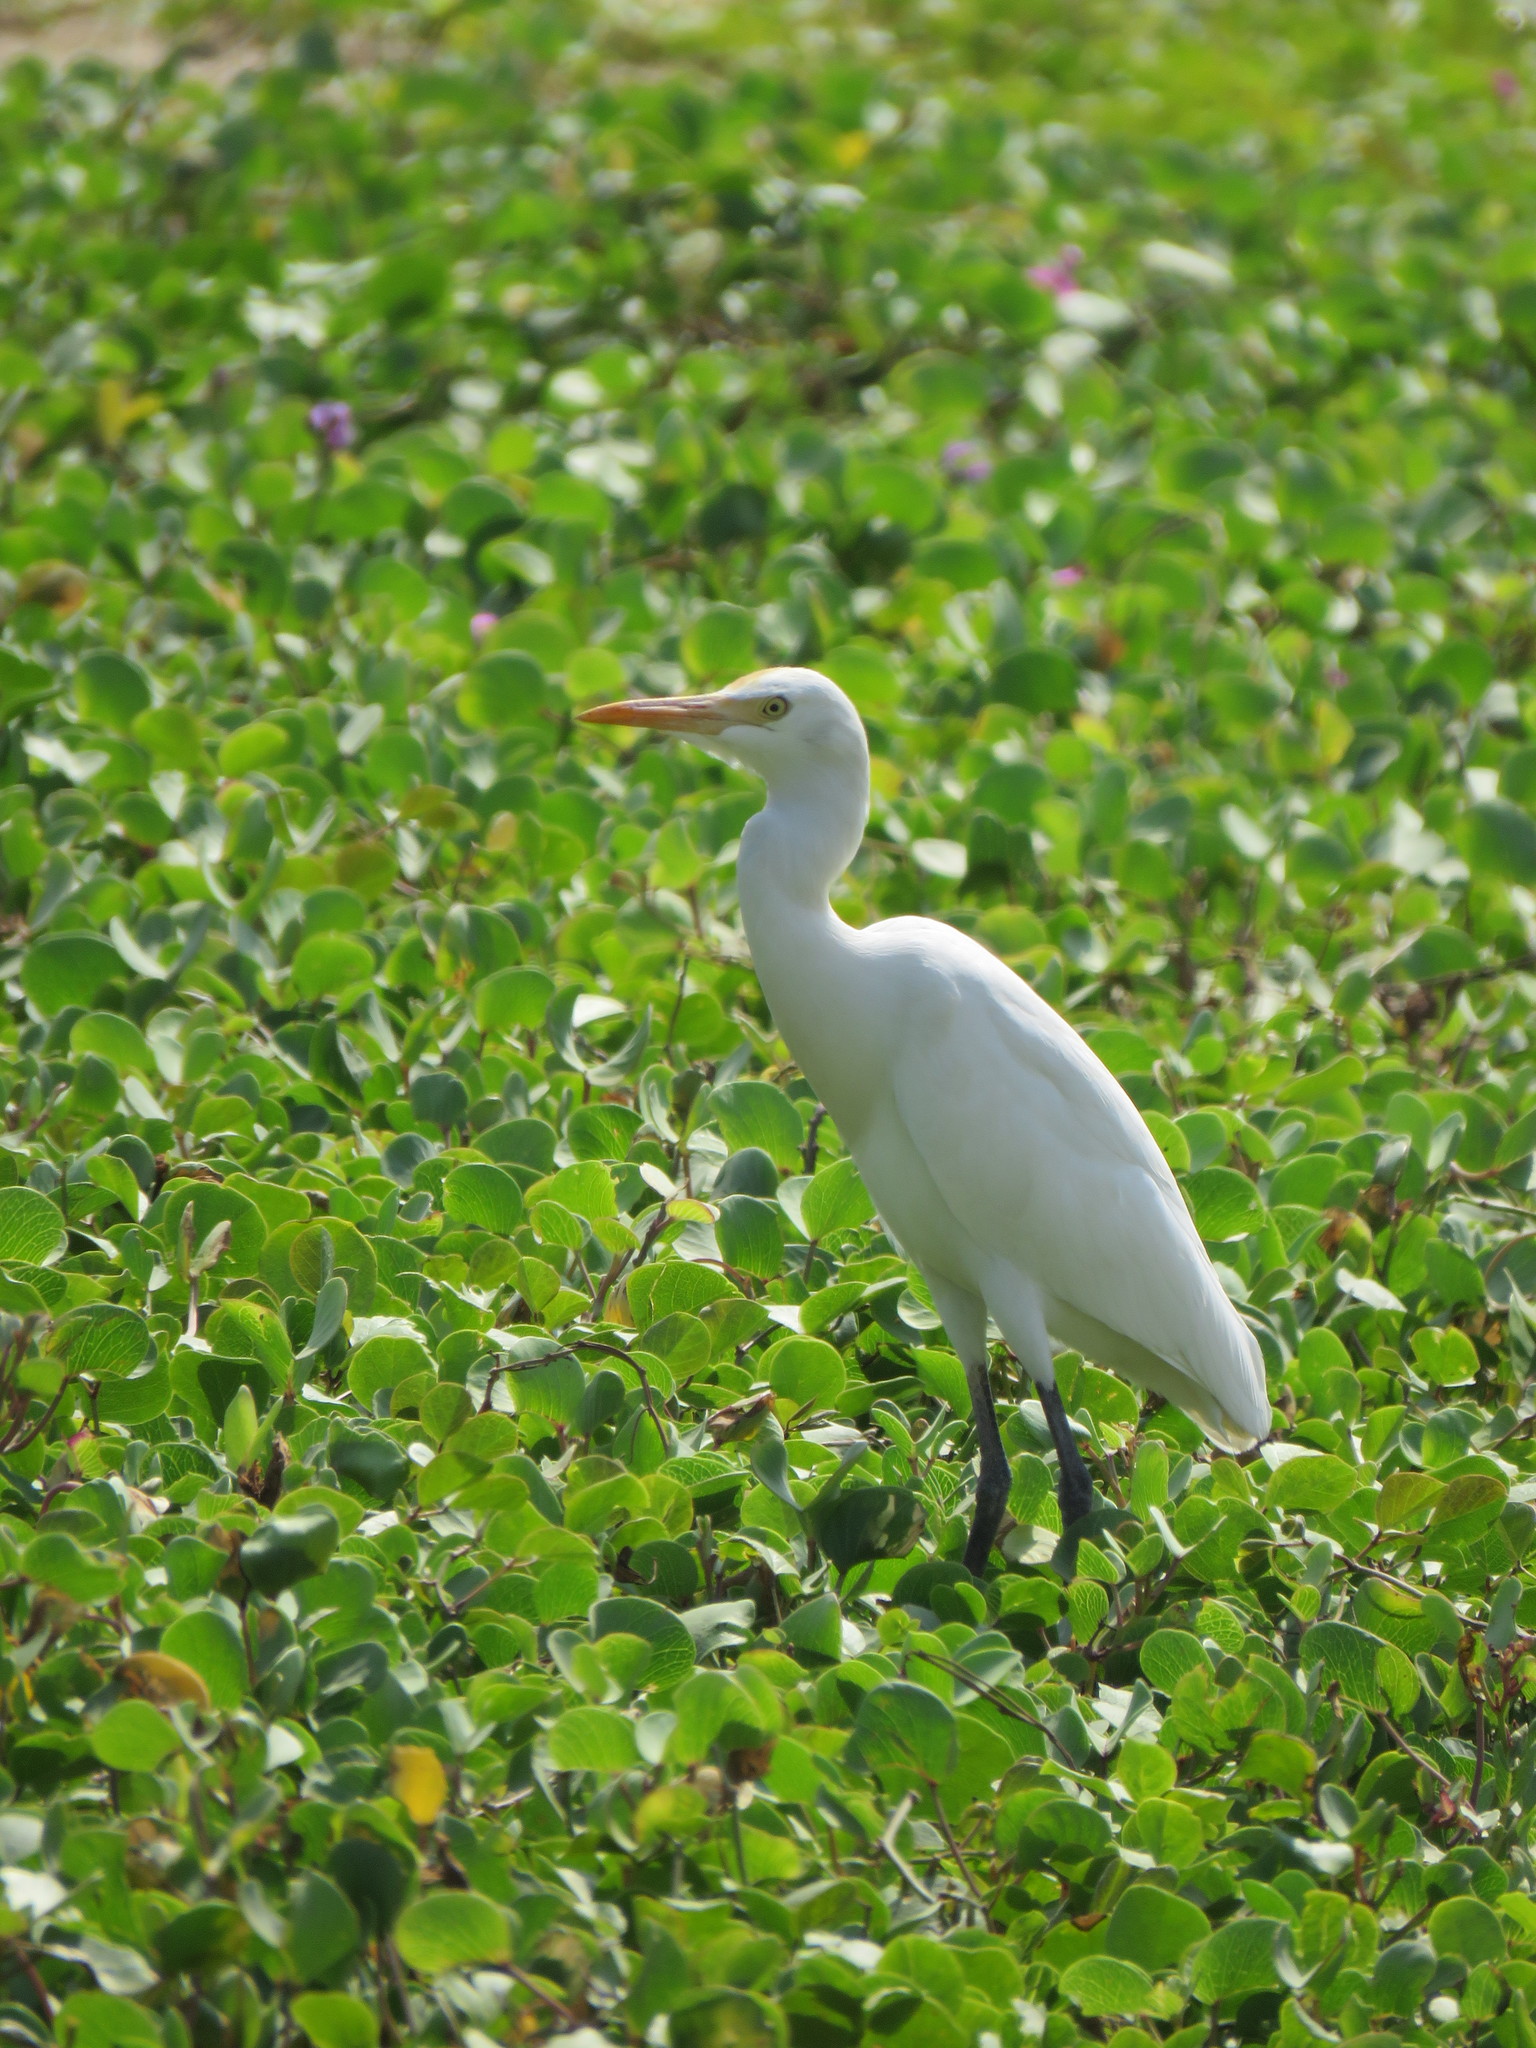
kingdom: Animalia
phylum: Chordata
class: Aves
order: Pelecaniformes
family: Ardeidae
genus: Bubulcus
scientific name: Bubulcus coromandus
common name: Eastern cattle egret
